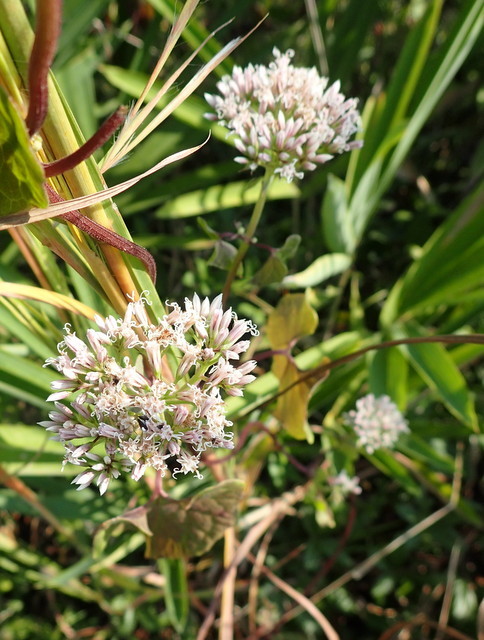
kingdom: Plantae
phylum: Tracheophyta
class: Magnoliopsida
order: Asterales
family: Asteraceae
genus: Mikania
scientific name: Mikania scandens
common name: Climbing hempvine
